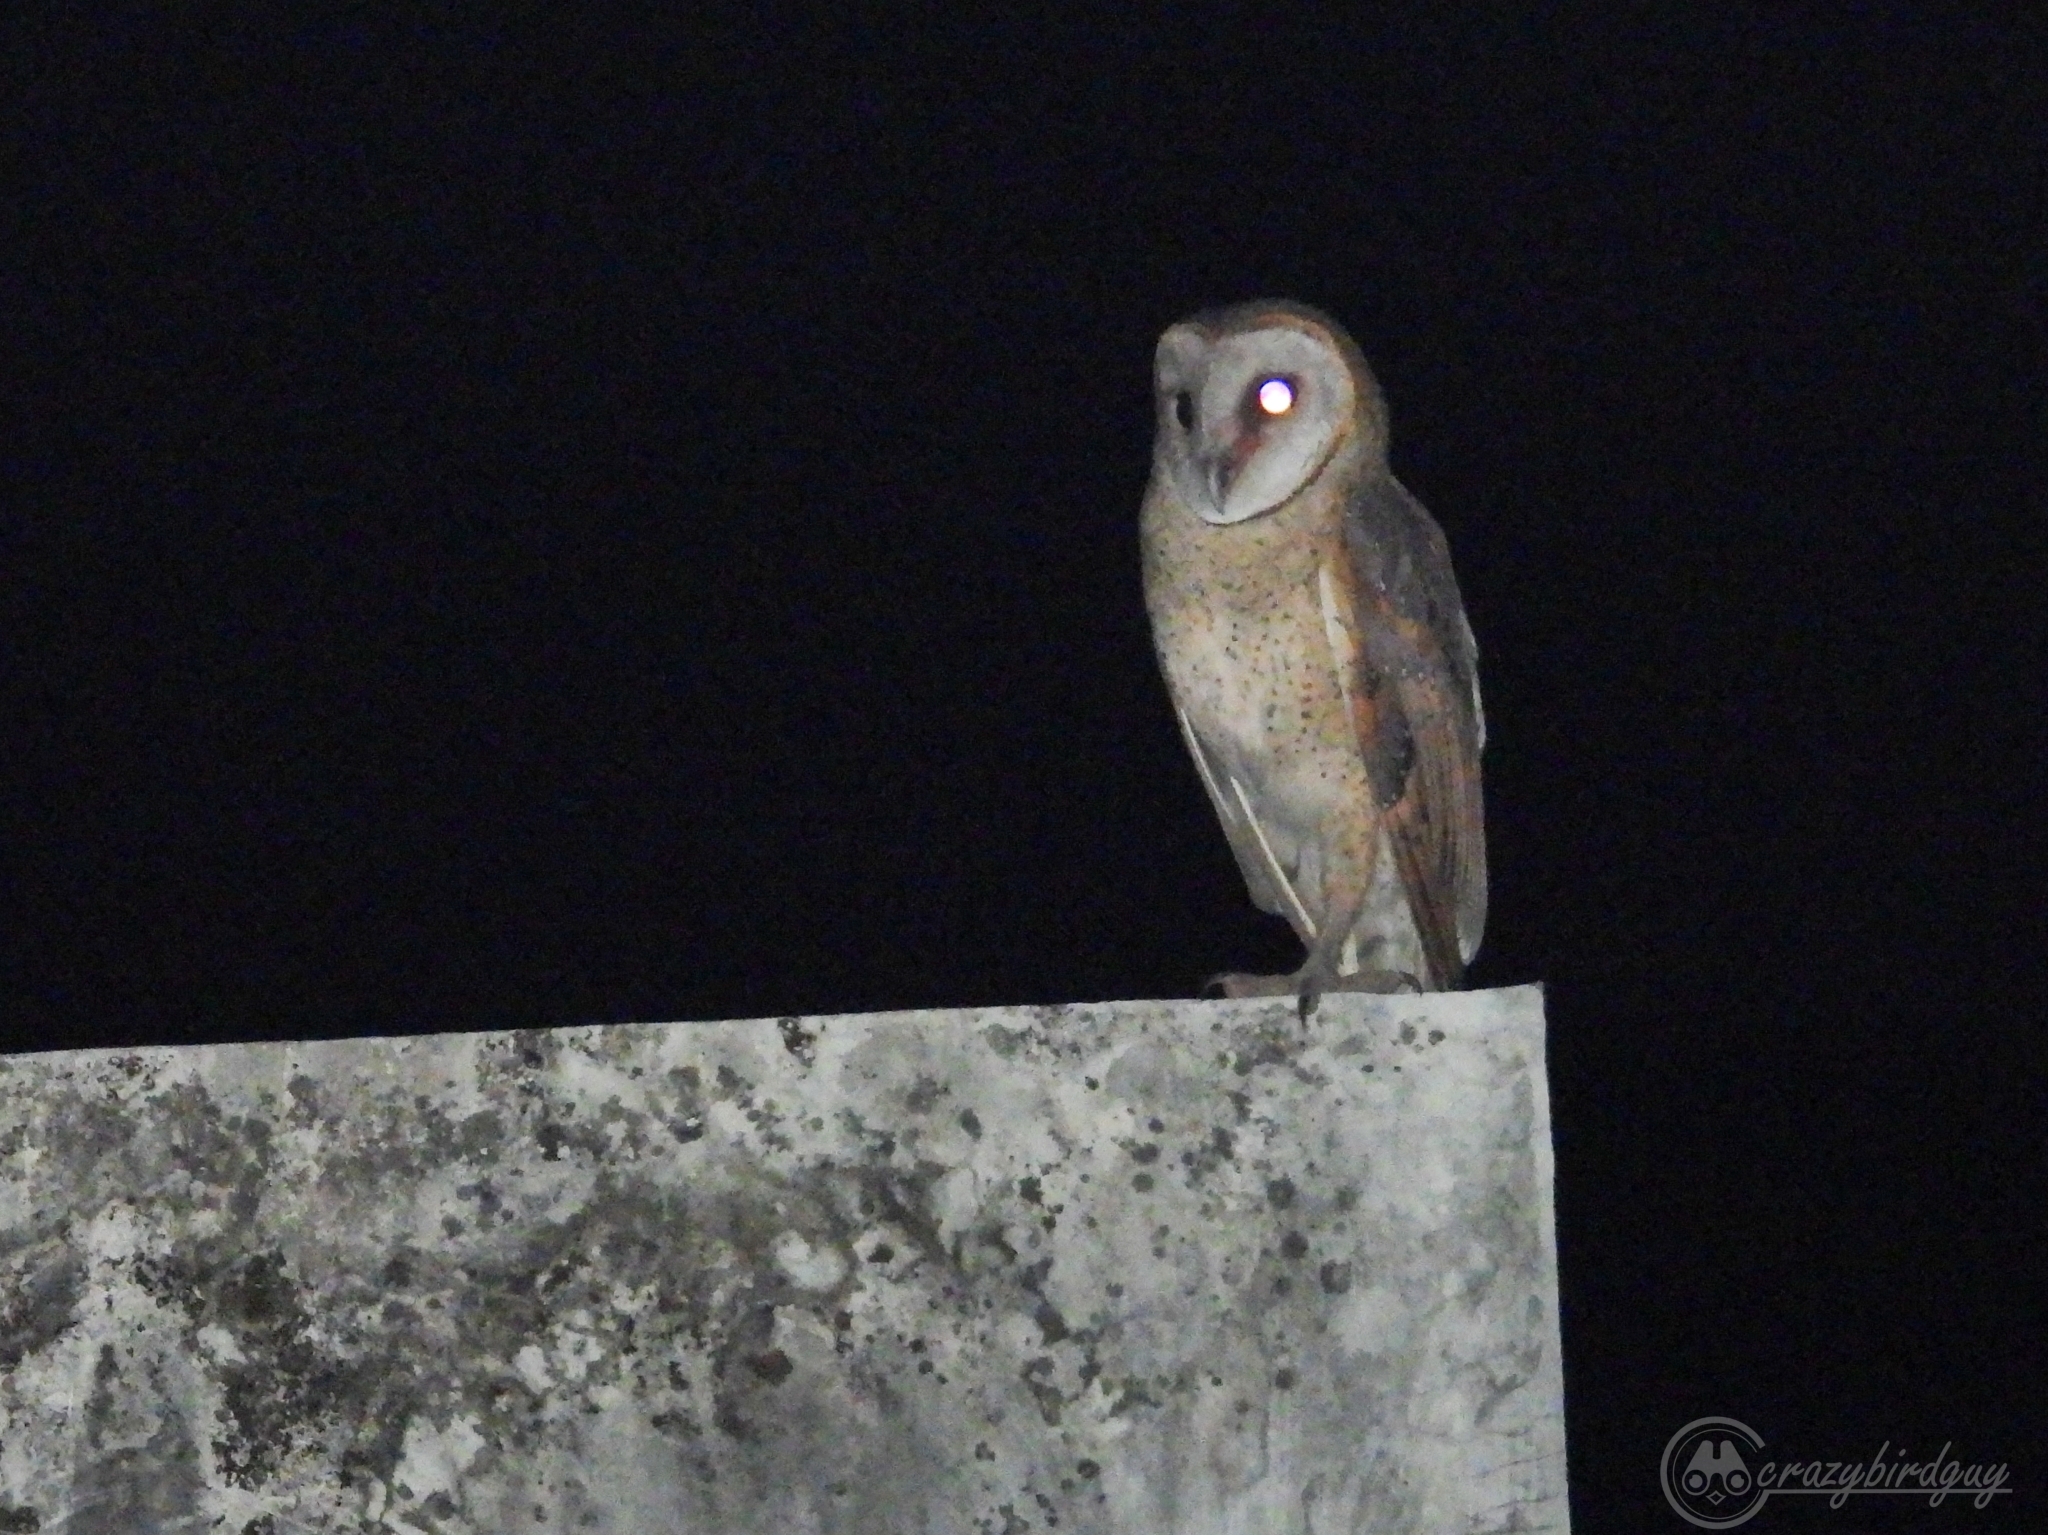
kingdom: Animalia
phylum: Chordata
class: Aves
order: Strigiformes
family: Tytonidae
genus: Tyto
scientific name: Tyto alba
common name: Barn owl
